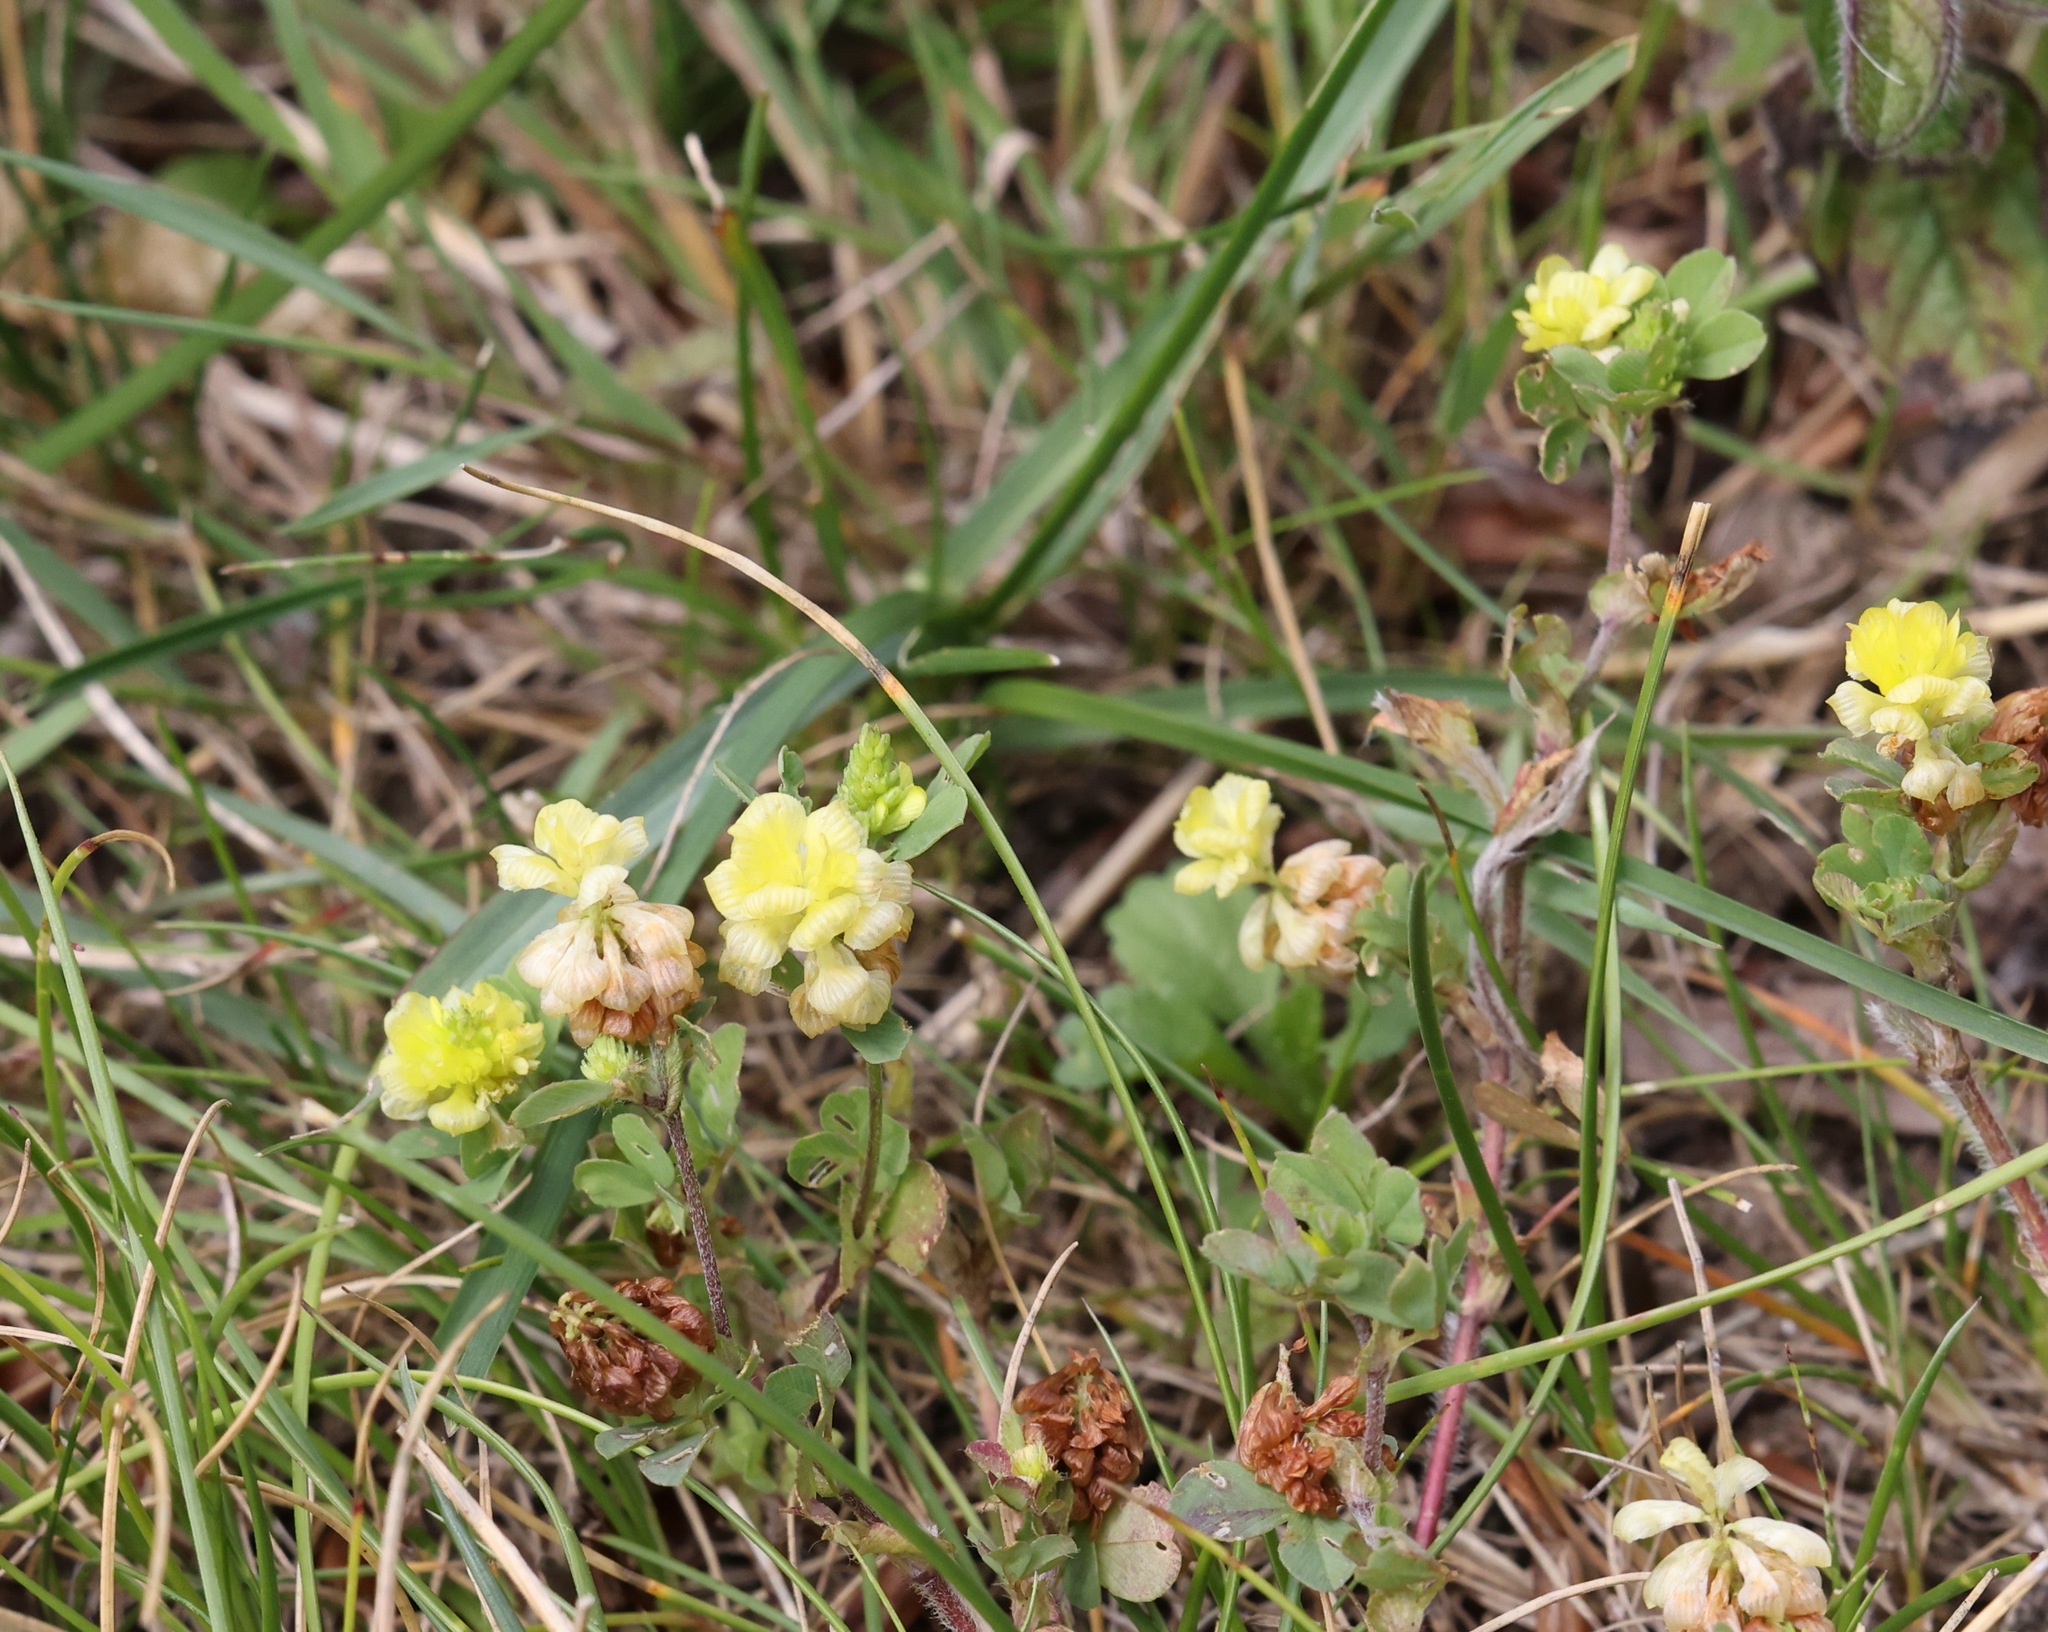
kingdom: Plantae
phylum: Tracheophyta
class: Magnoliopsida
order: Fabales
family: Fabaceae
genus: Trifolium
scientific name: Trifolium campestre
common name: Field clover
